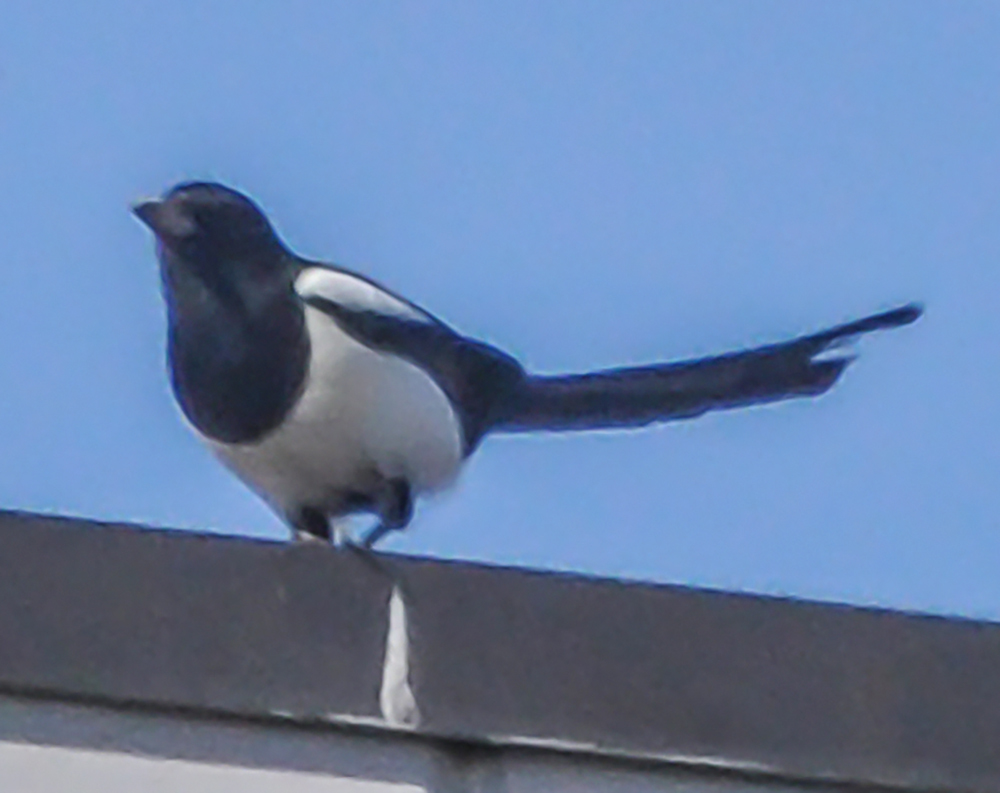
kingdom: Animalia
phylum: Chordata
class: Aves
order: Passeriformes
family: Corvidae
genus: Pica
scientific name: Pica pica
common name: Eurasian magpie
